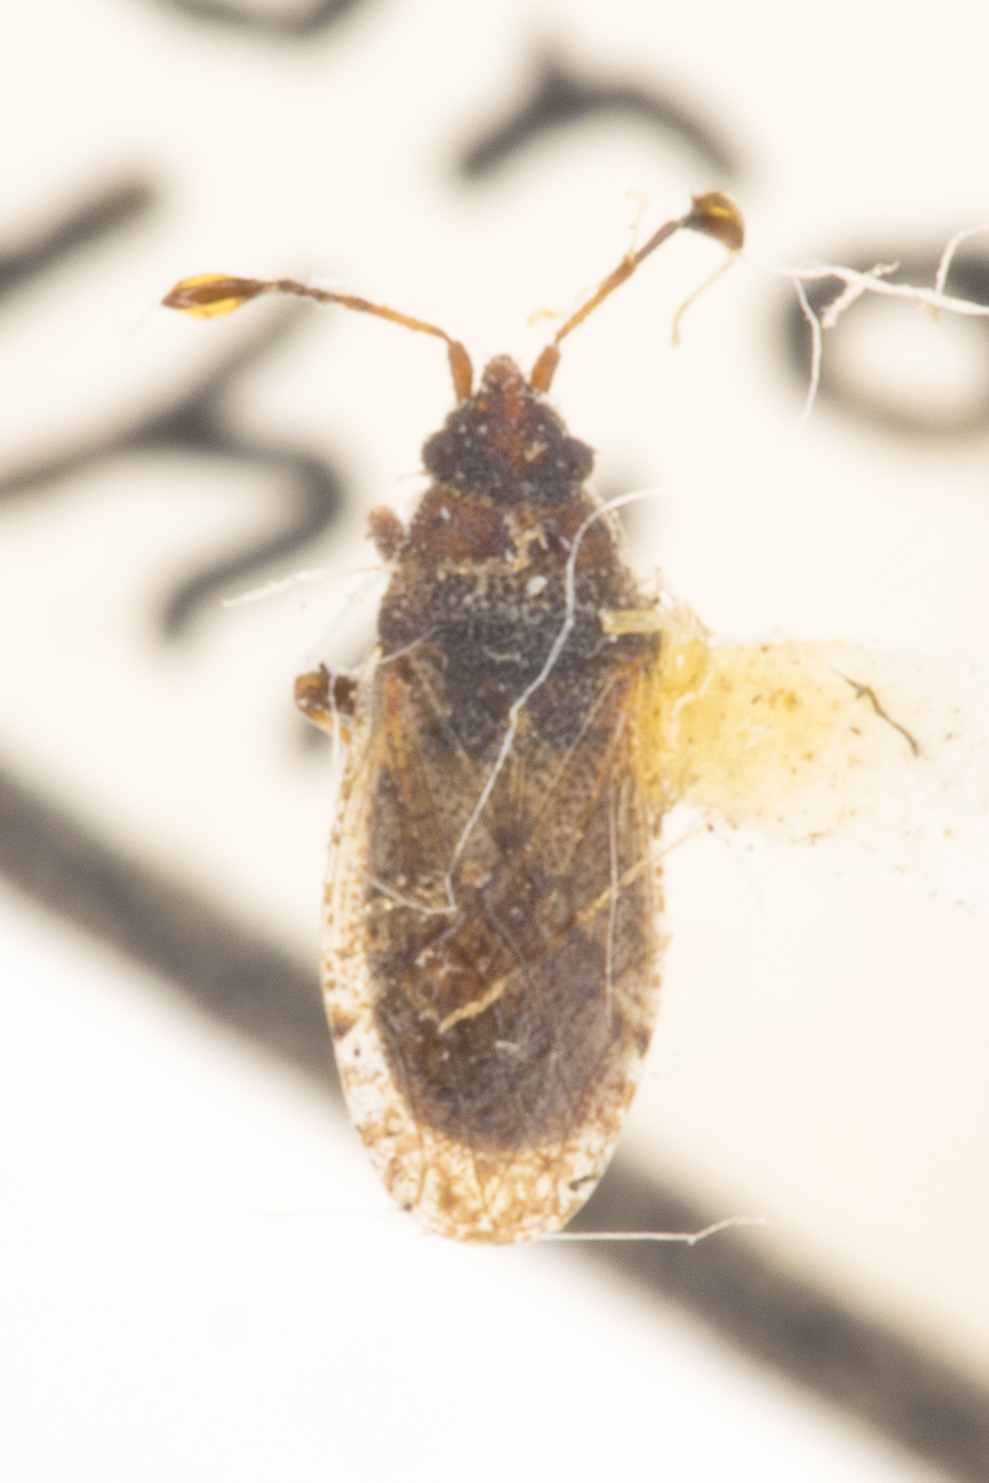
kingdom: Animalia
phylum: Arthropoda
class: Insecta
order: Hemiptera
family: Oxycarenidae
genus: Crophius
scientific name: Crophius scabrosus
